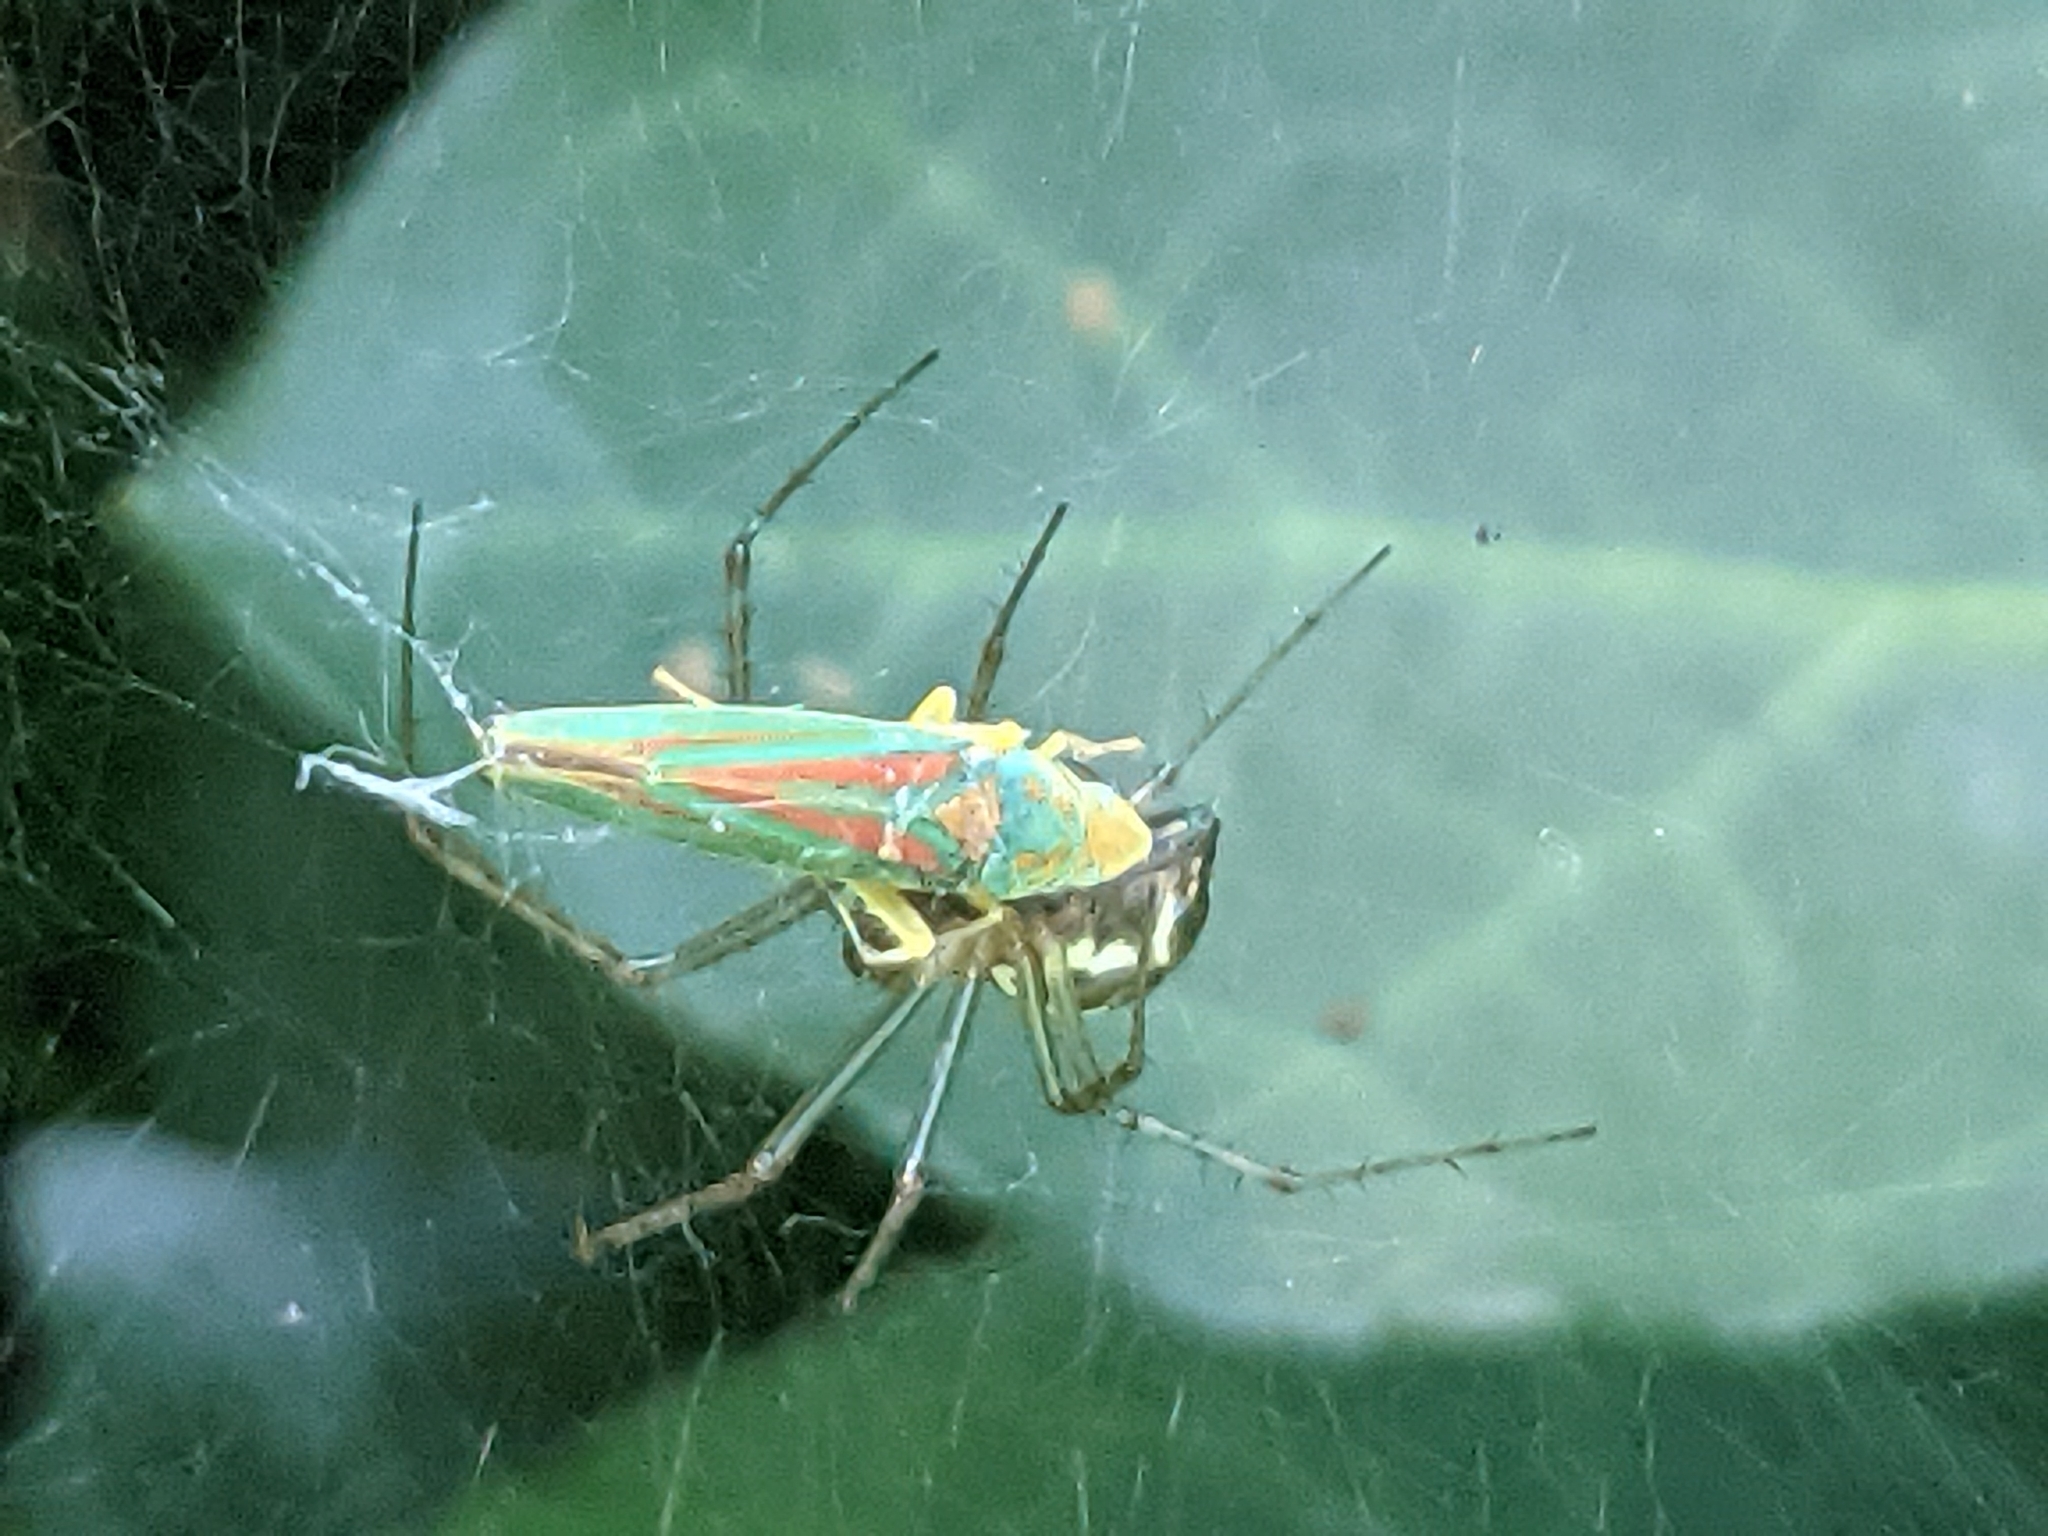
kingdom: Animalia
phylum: Arthropoda
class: Arachnida
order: Araneae
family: Linyphiidae
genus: Neriene
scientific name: Neriene radiata
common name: Filmy dome spider
